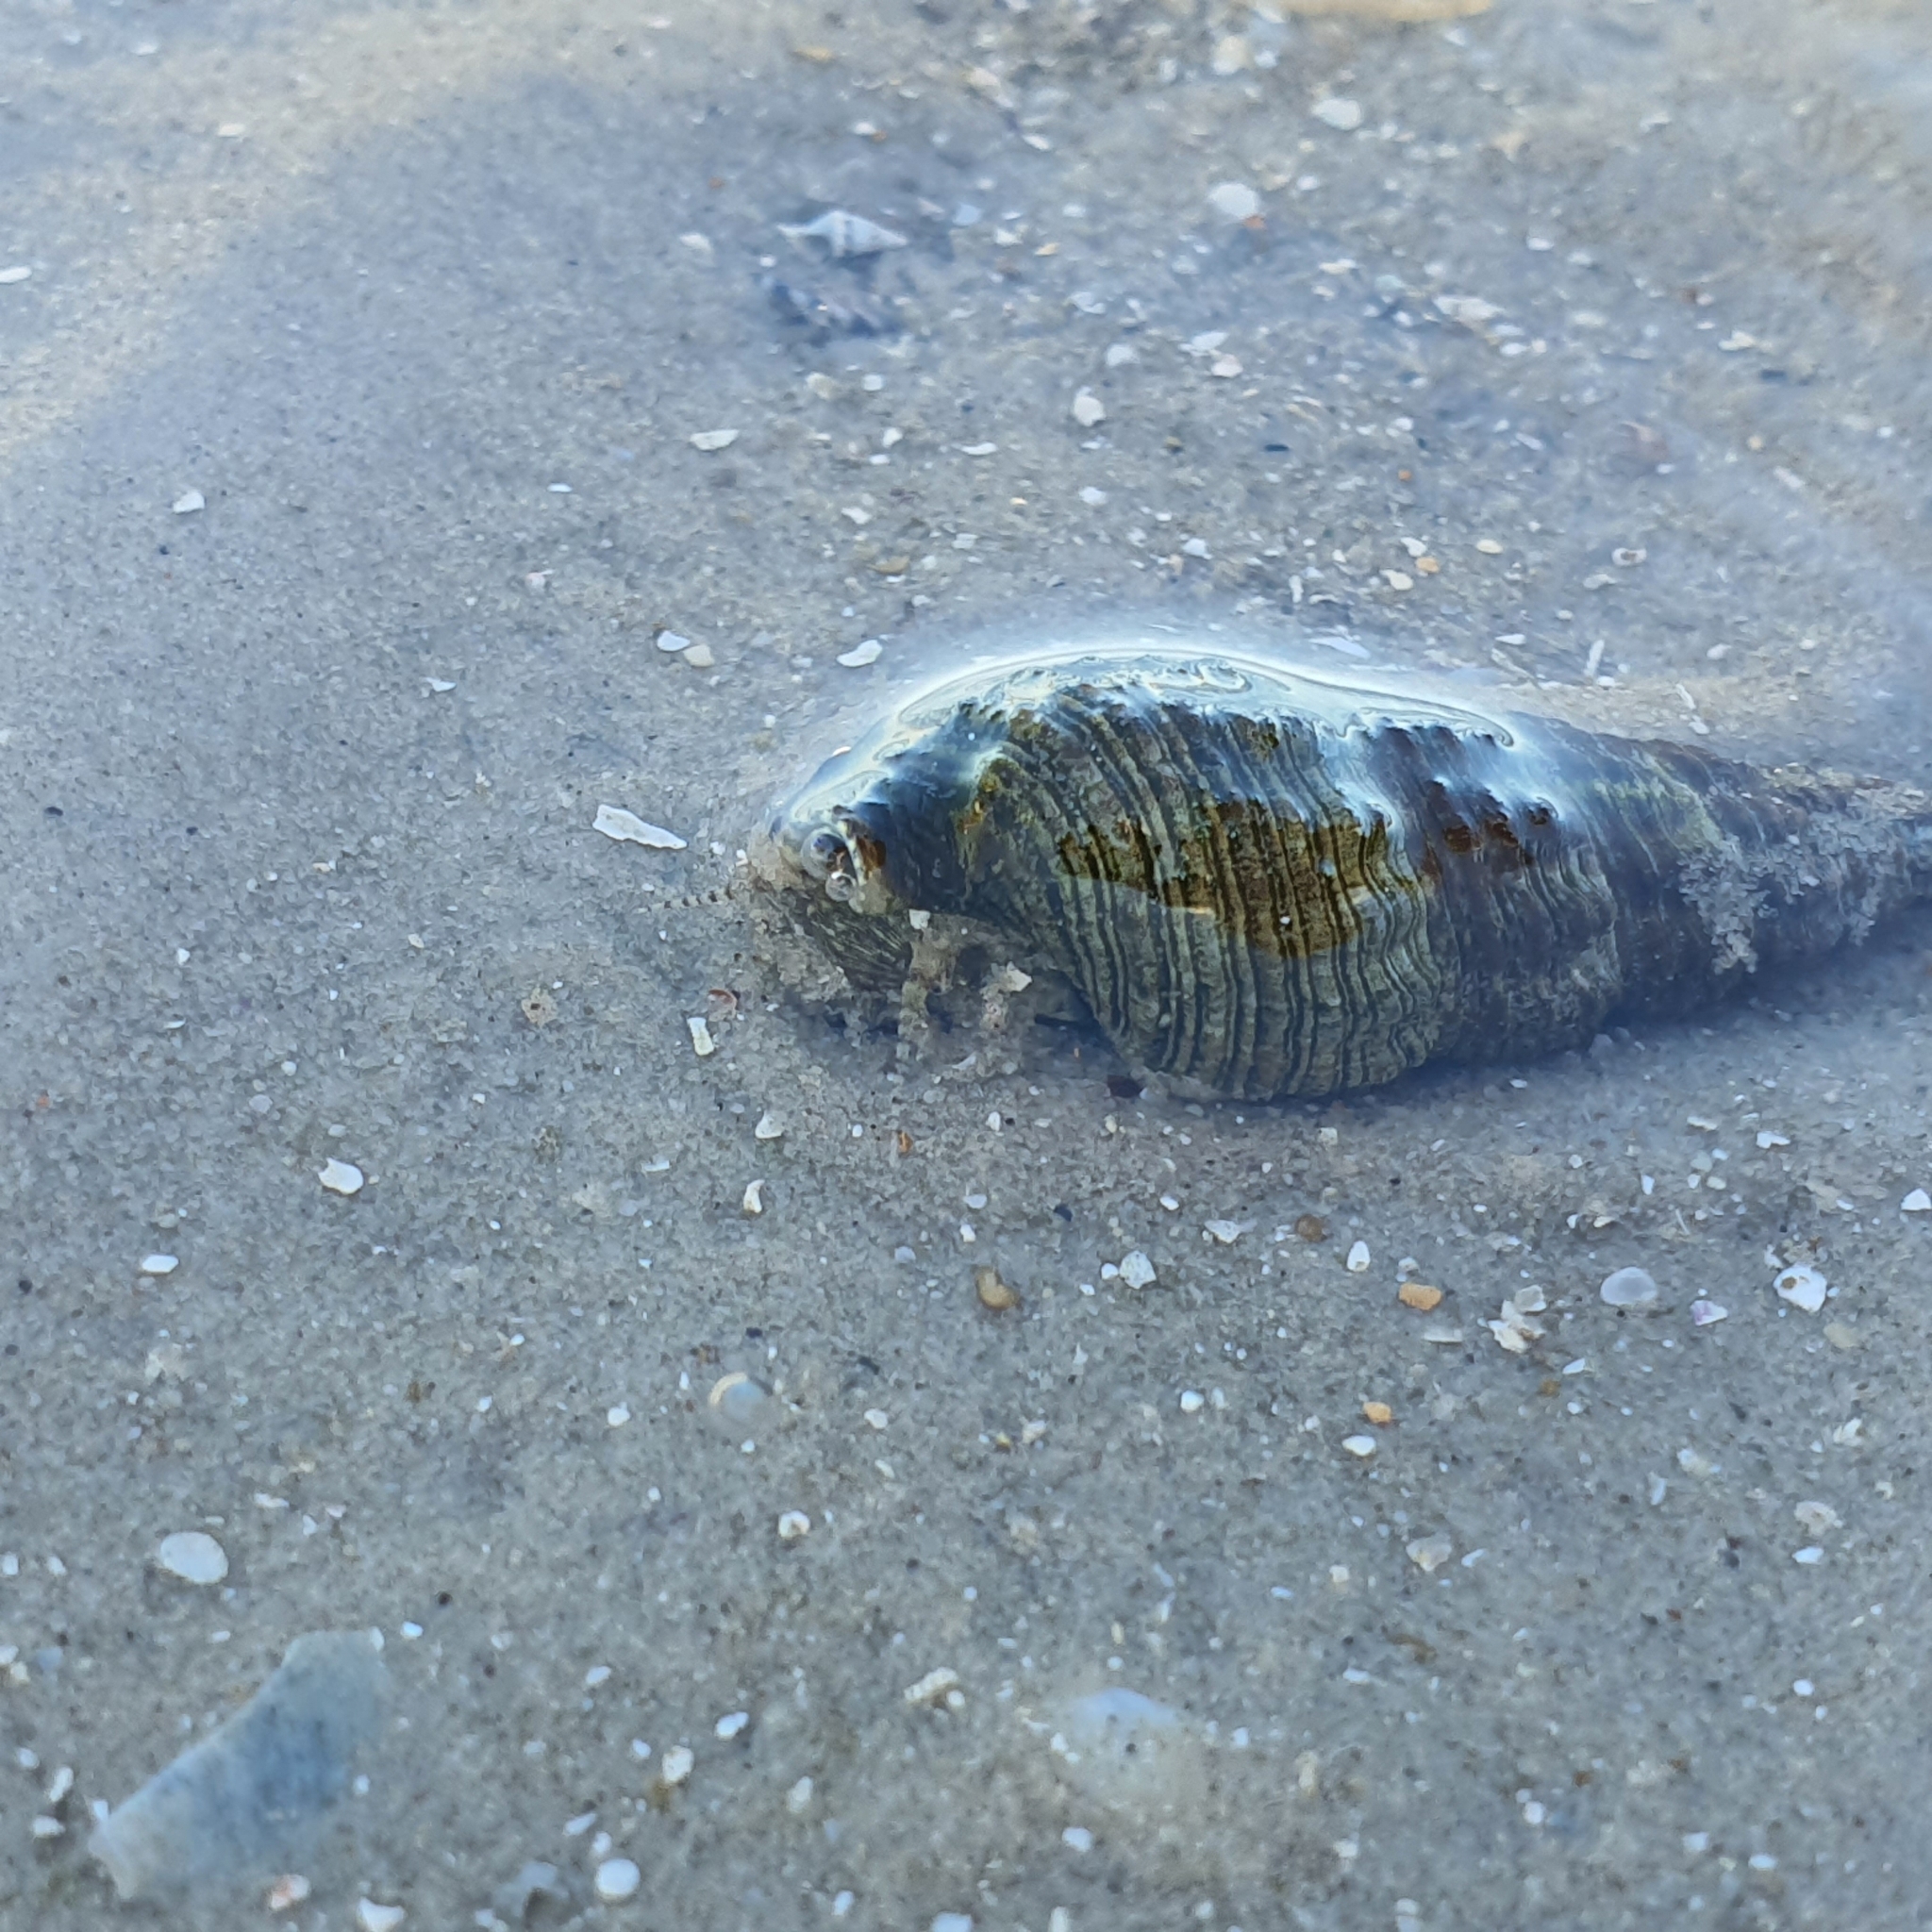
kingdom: Animalia
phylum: Mollusca
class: Gastropoda
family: Batillariidae
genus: Batillaria
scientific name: Batillaria australis
